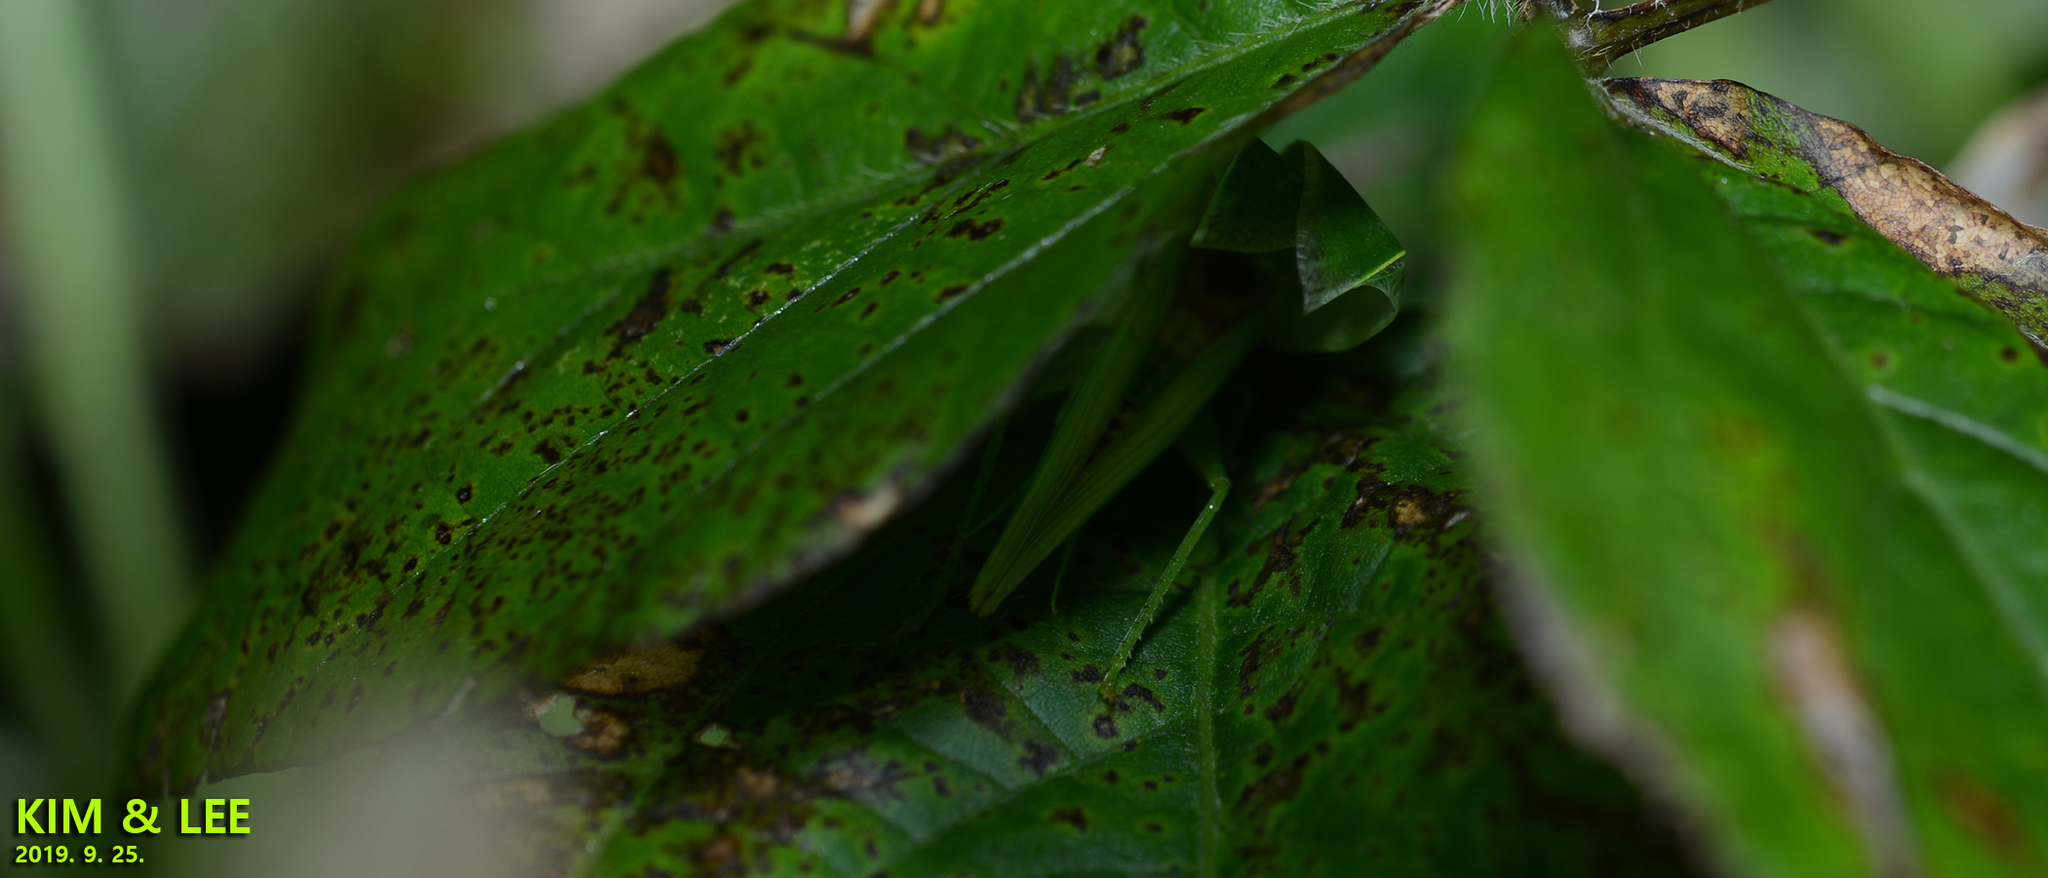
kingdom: Animalia
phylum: Arthropoda
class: Insecta
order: Orthoptera
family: Gryllidae
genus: Truljalia
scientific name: Truljalia hibinonis
